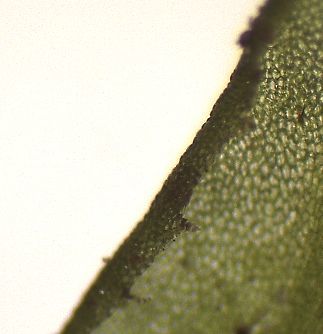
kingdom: Plantae
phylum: Marchantiophyta
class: Jungermanniopsida
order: Pallaviciniales
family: Pallaviciniaceae
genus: Symphyogyna
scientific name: Symphyogyna tenuinervis
